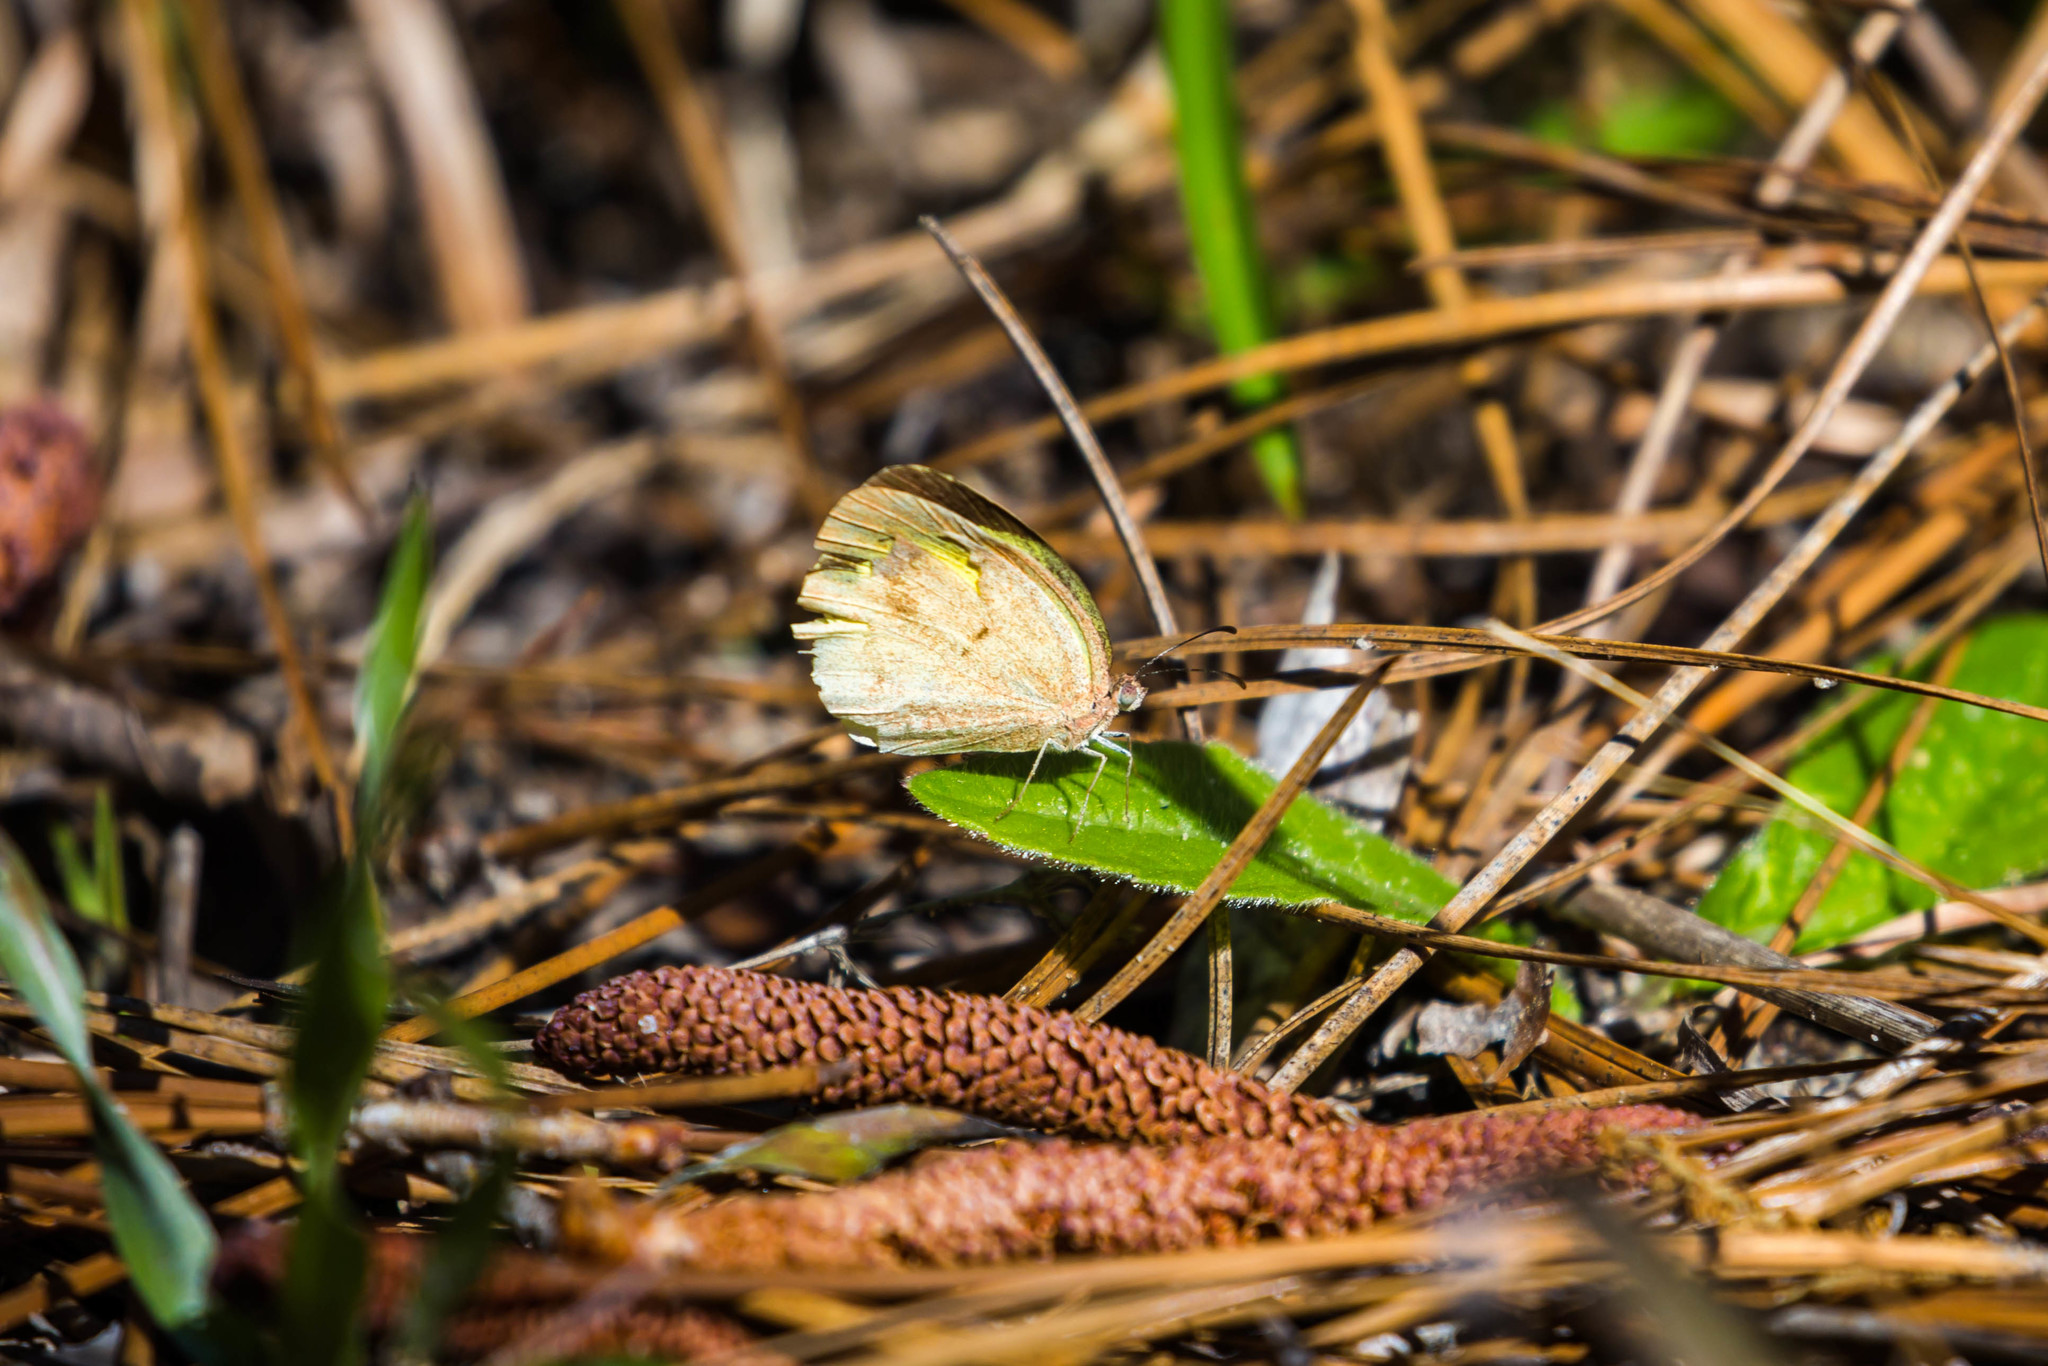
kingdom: Animalia
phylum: Arthropoda
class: Insecta
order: Lepidoptera
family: Pieridae
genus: Eurema
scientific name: Eurema daira
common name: Barred sulphur
